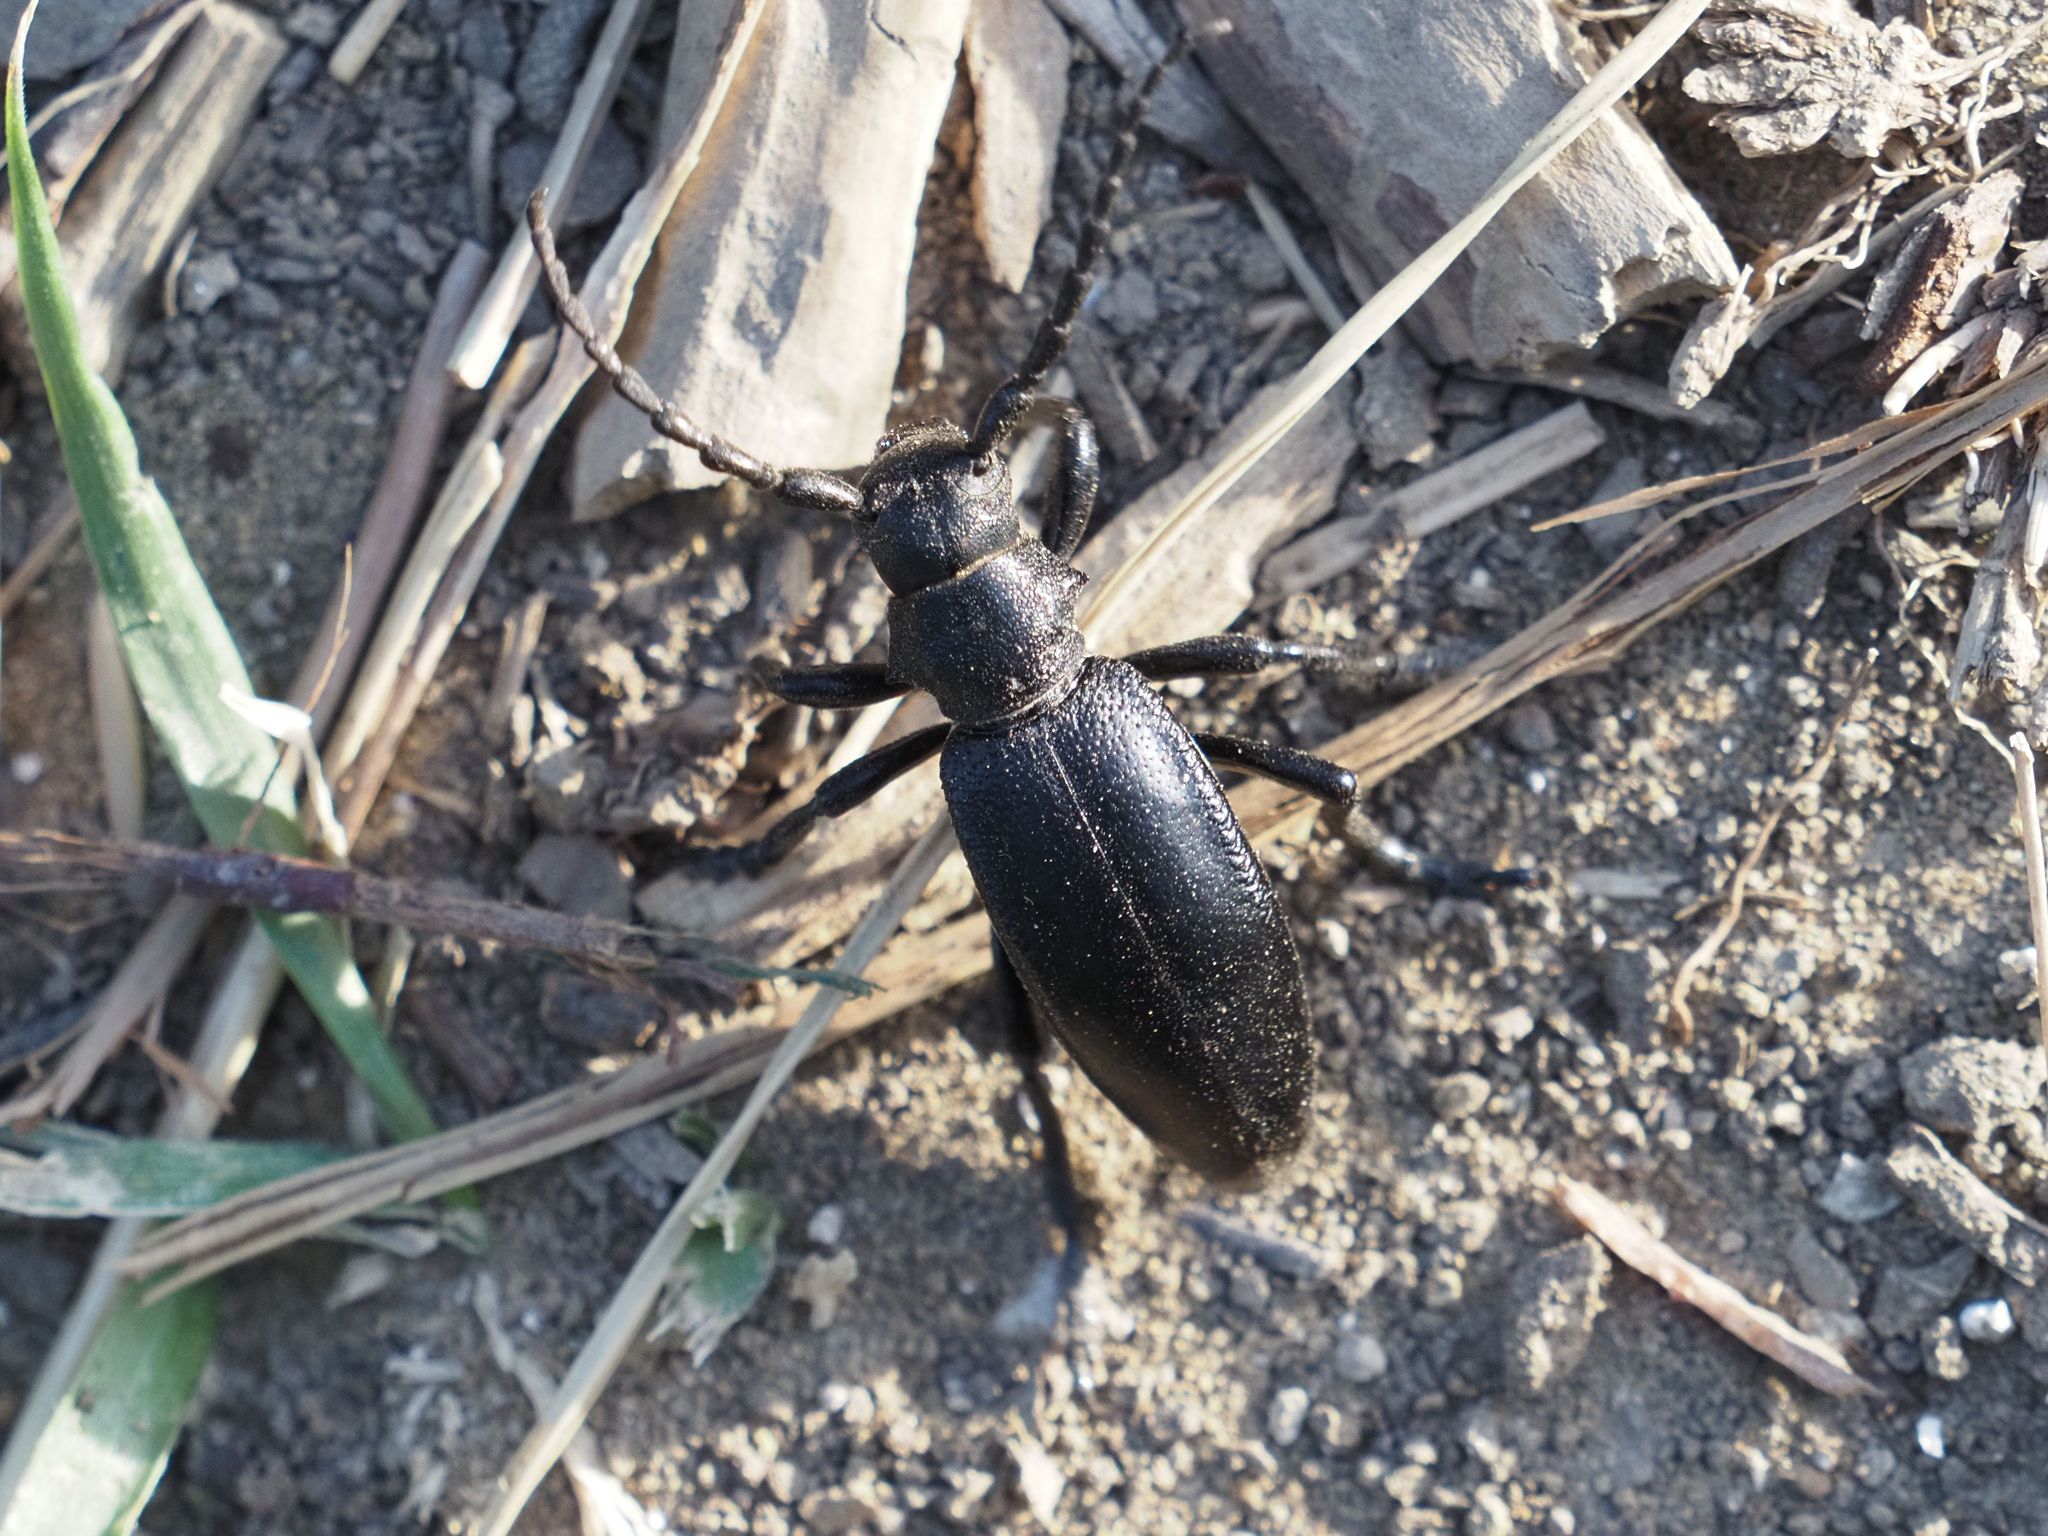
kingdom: Animalia
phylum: Arthropoda
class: Insecta
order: Coleoptera
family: Cerambycidae
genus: Dorcadion
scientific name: Dorcadion aethiops
